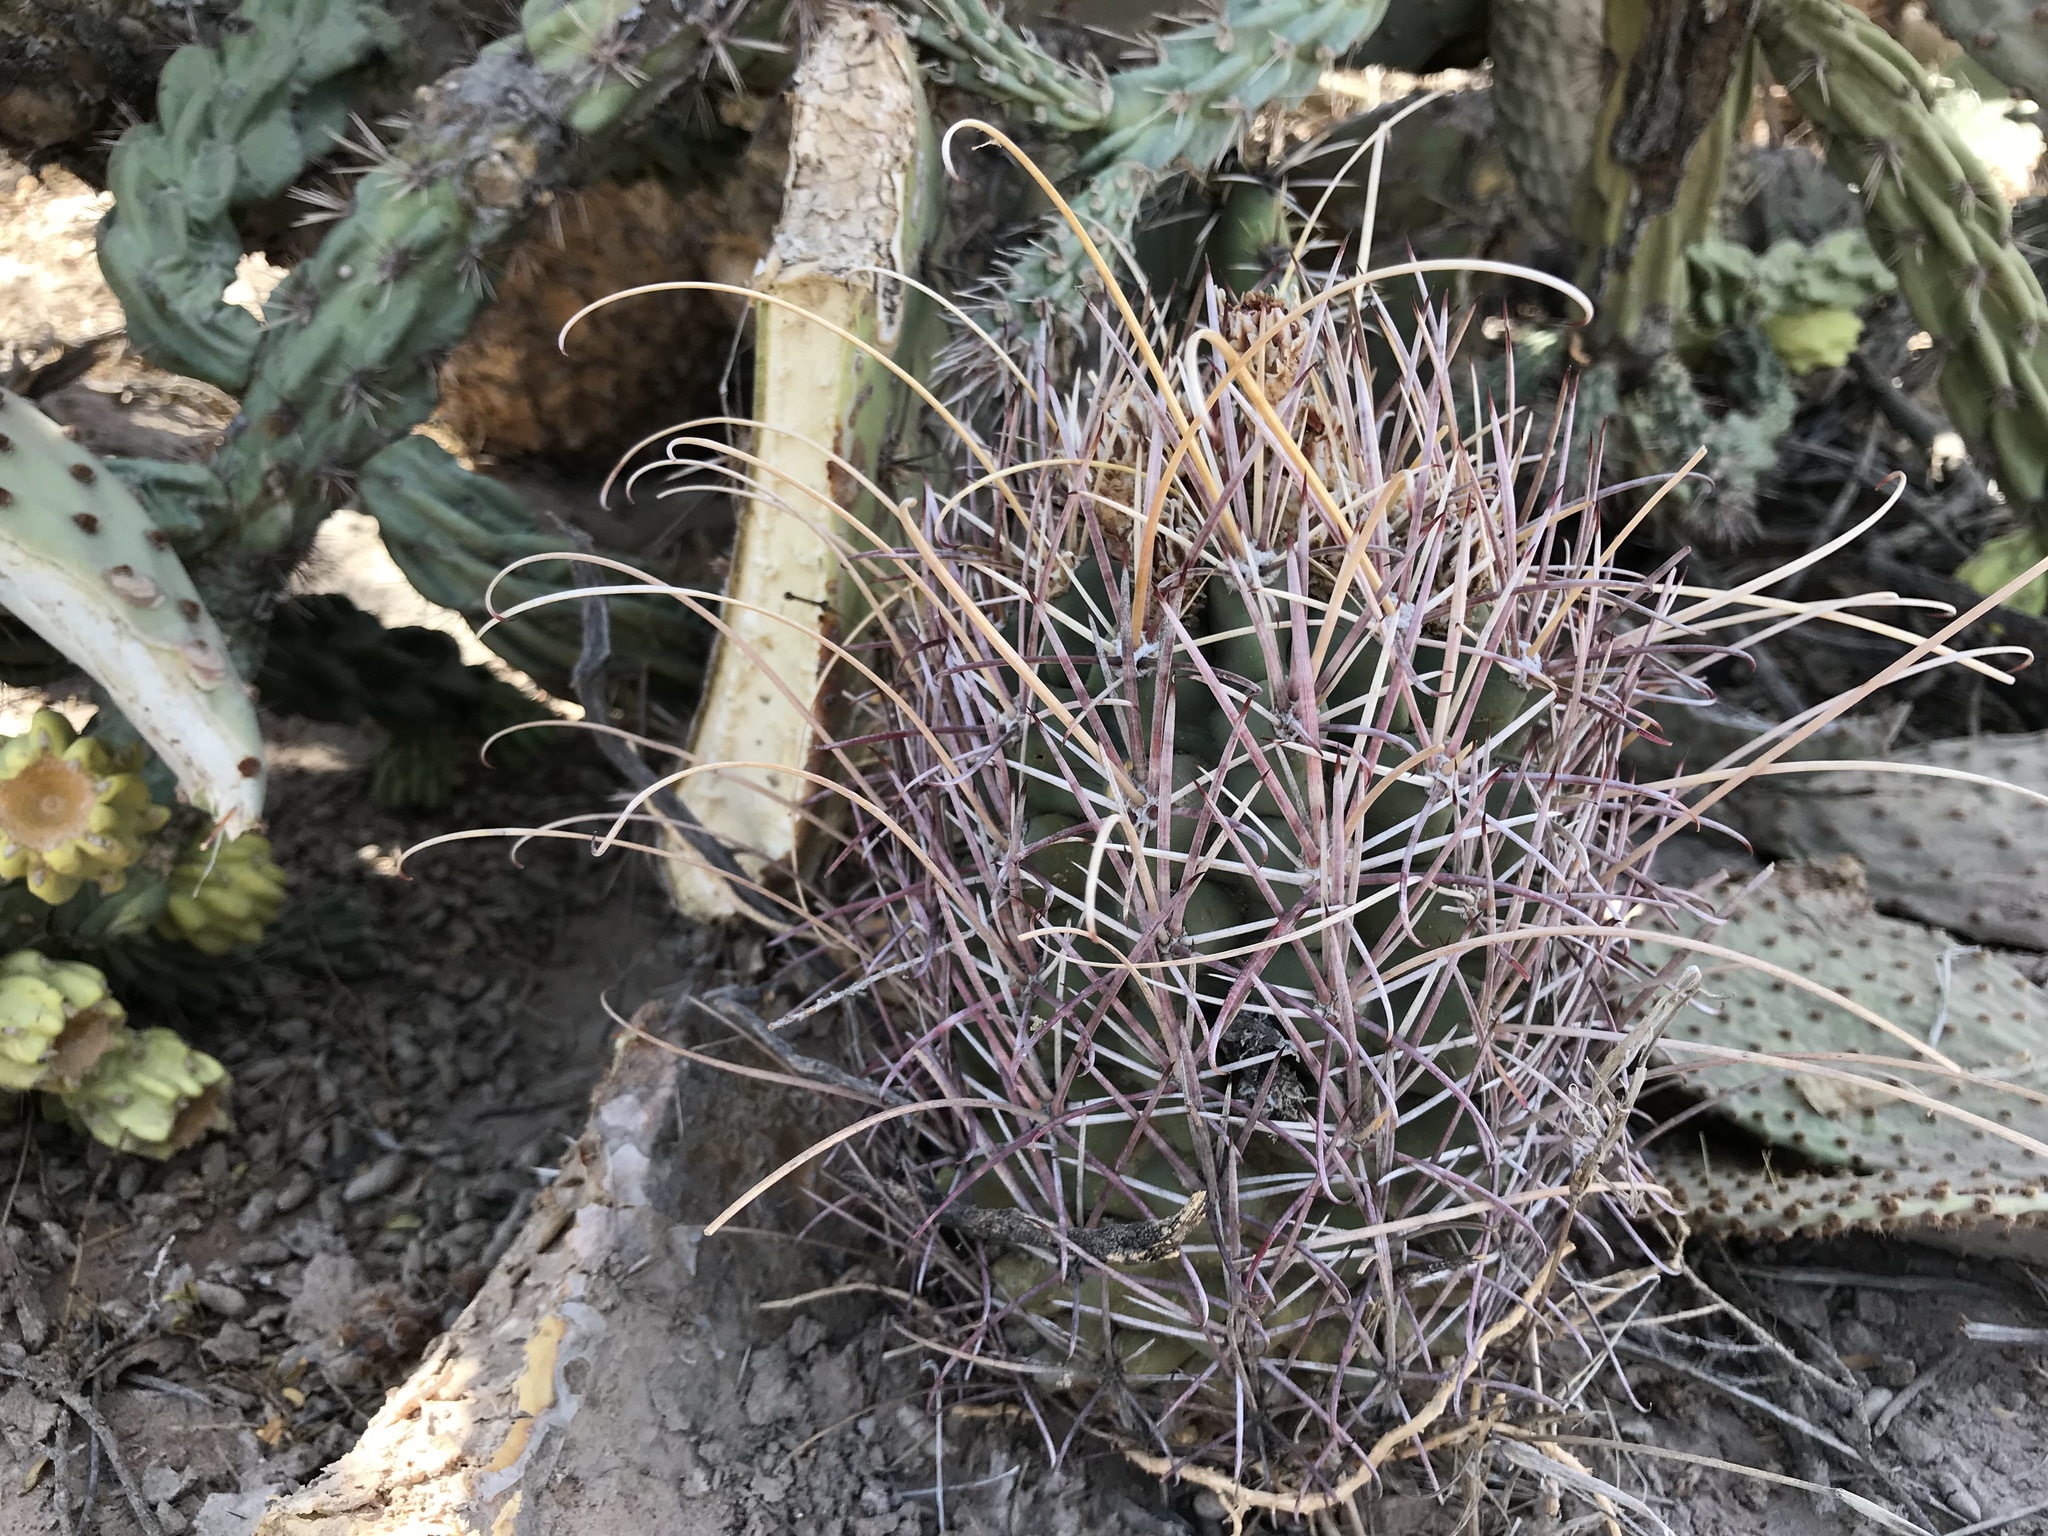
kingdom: Plantae
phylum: Tracheophyta
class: Magnoliopsida
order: Caryophyllales
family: Cactaceae
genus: Ferocactus
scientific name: Ferocactus uncinatus
